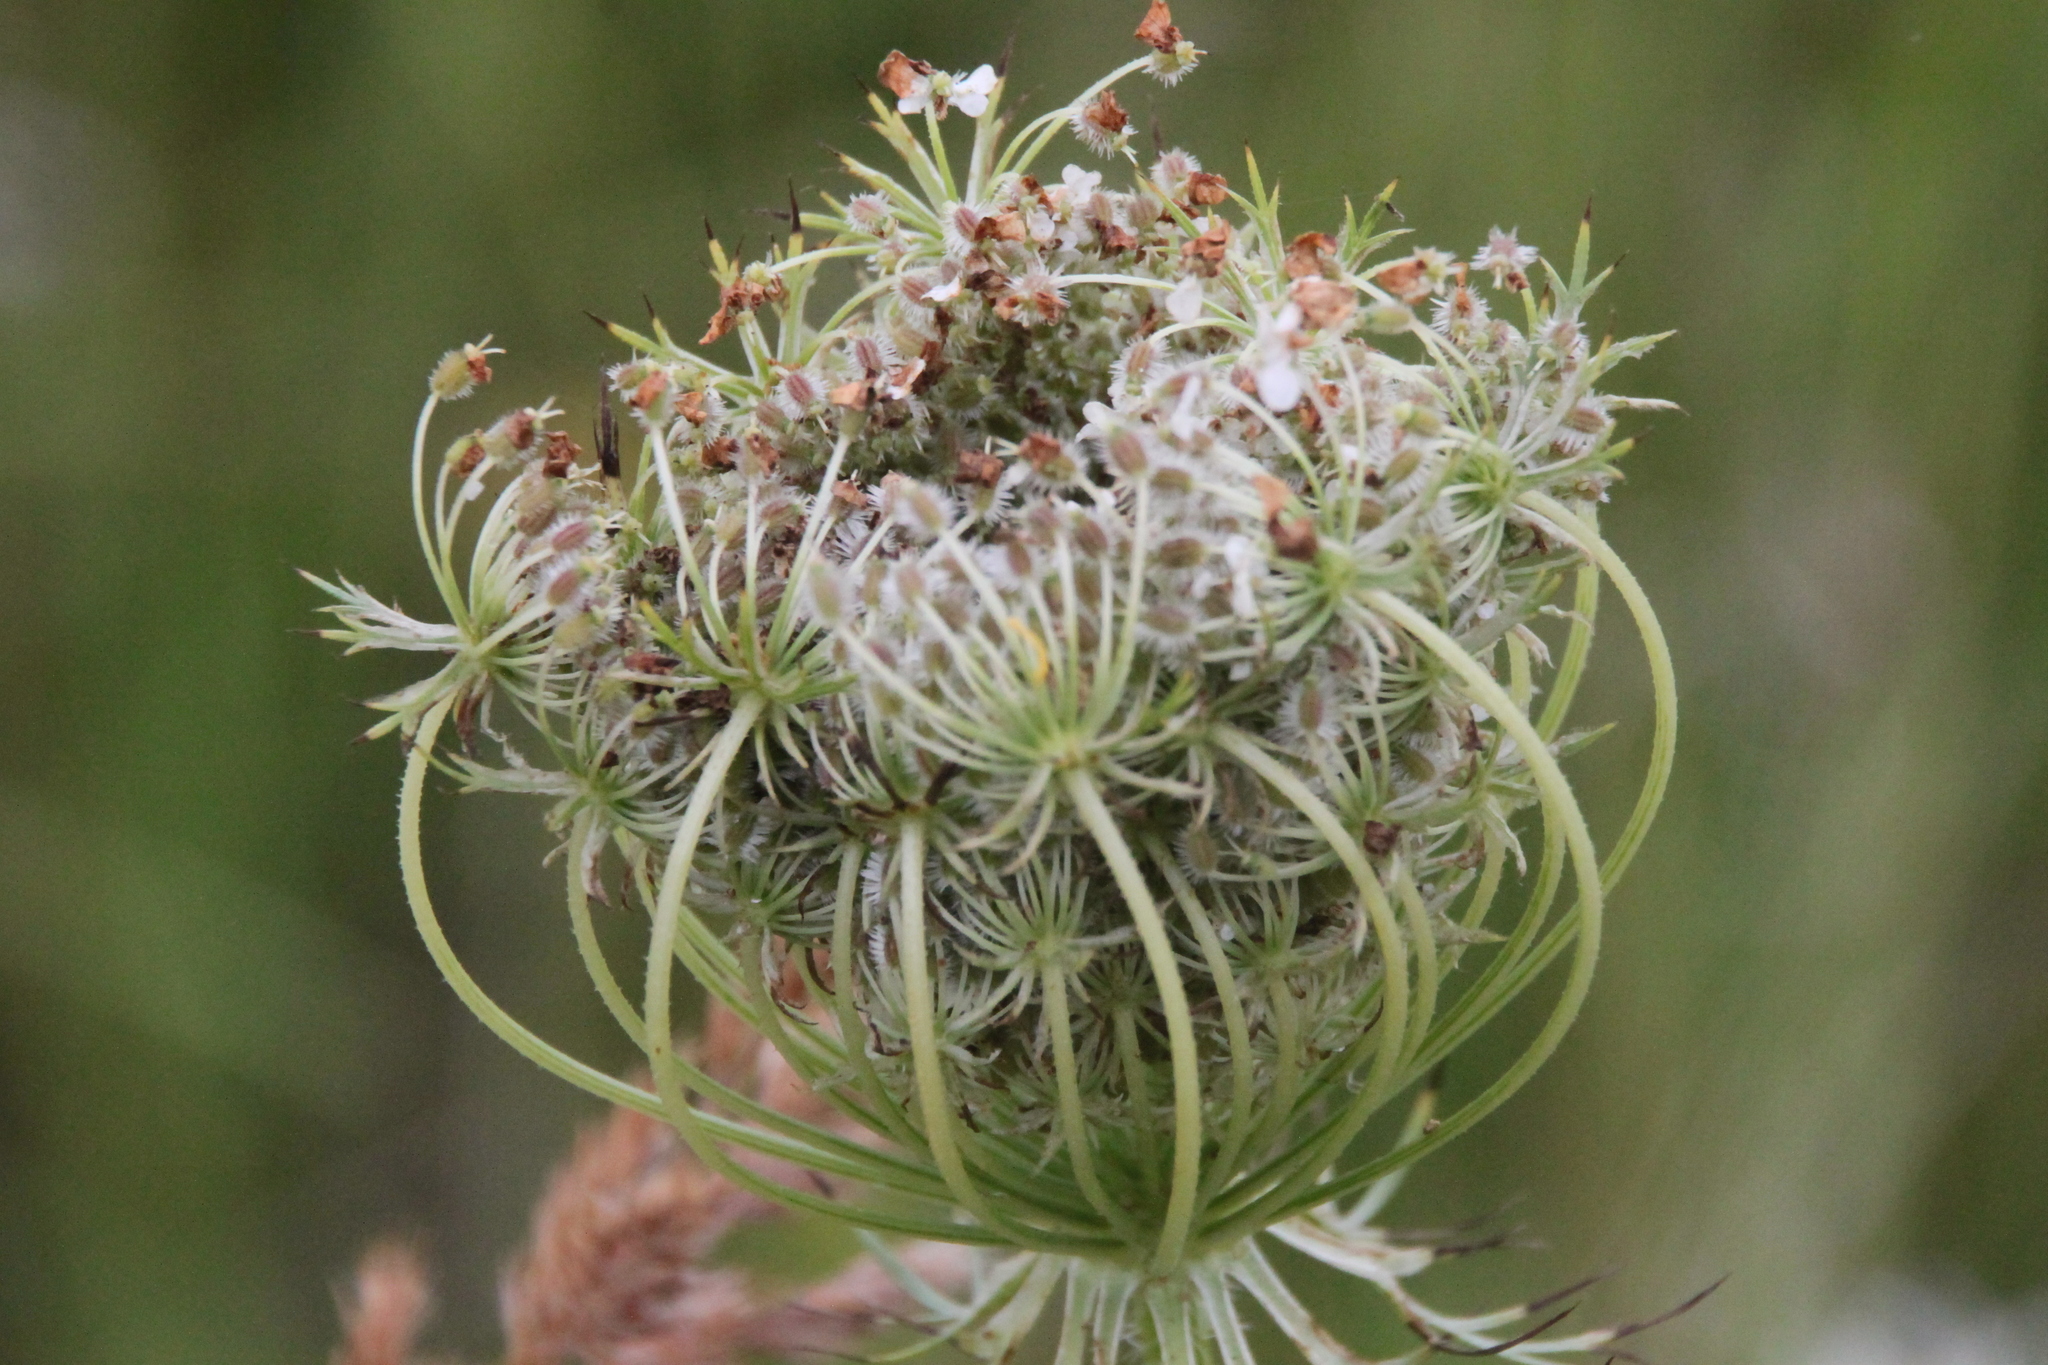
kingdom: Plantae
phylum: Tracheophyta
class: Magnoliopsida
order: Apiales
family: Apiaceae
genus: Daucus
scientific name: Daucus carota
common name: Wild carrot
